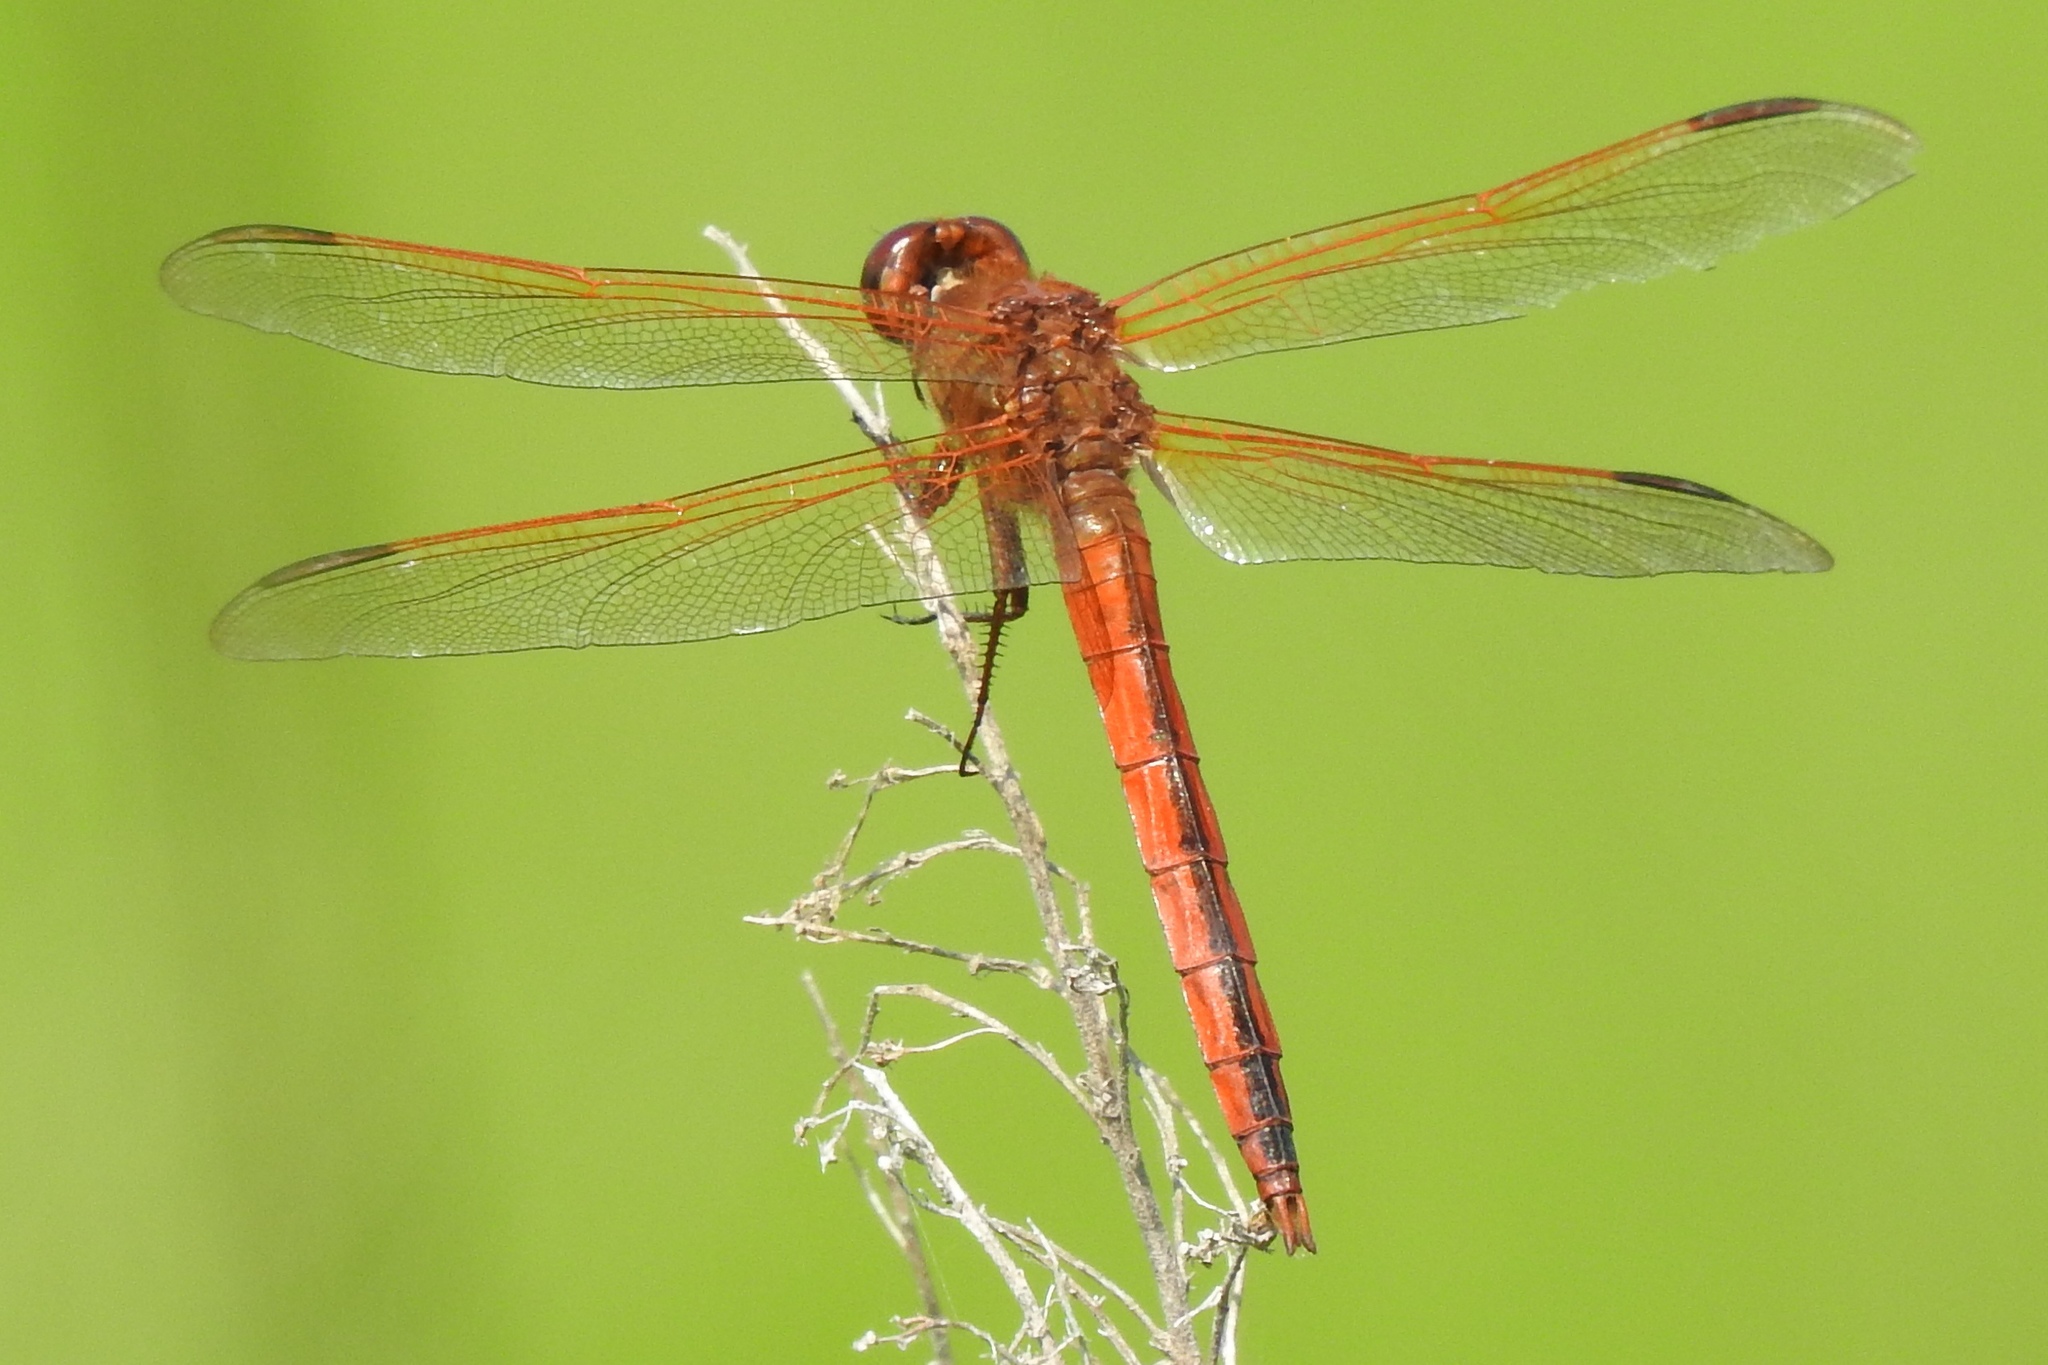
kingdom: Animalia
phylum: Arthropoda
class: Insecta
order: Odonata
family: Libellulidae
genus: Libellula
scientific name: Libellula needhami
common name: Needham's skimmer
